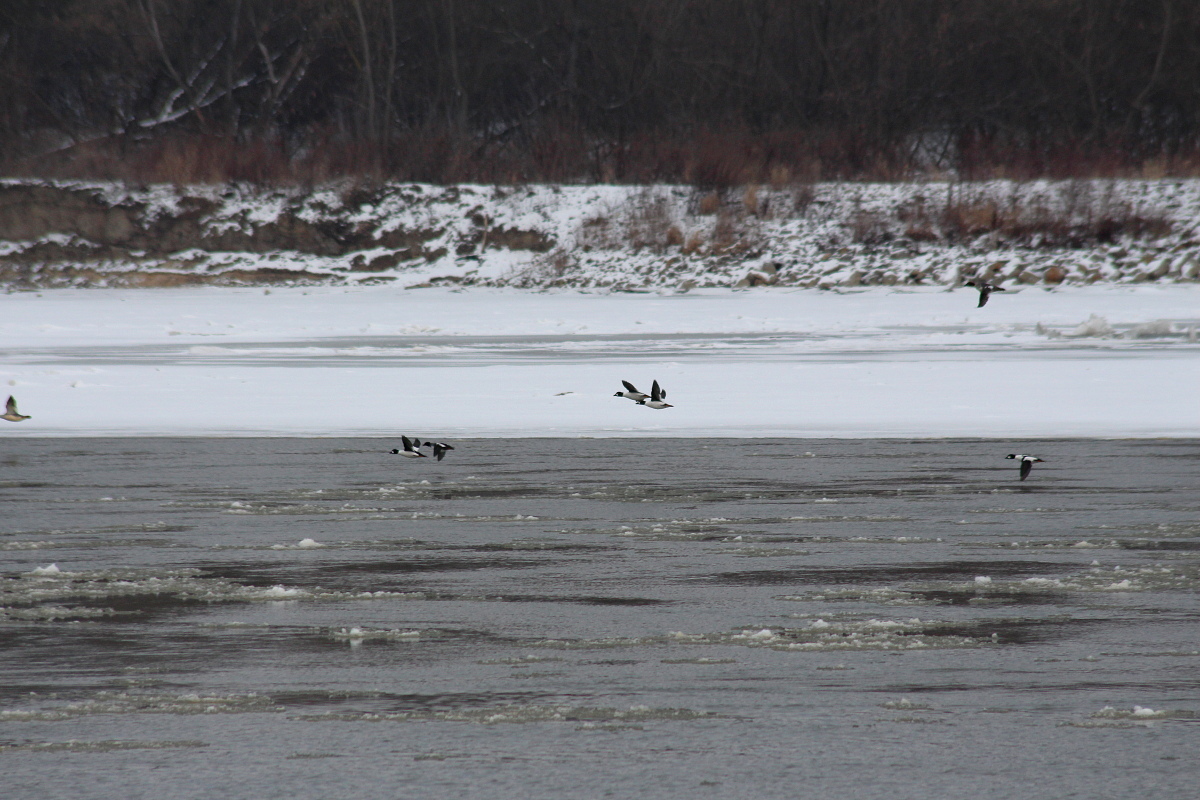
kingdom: Animalia
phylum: Chordata
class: Aves
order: Anseriformes
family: Anatidae
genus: Bucephala
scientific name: Bucephala clangula
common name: Common goldeneye
